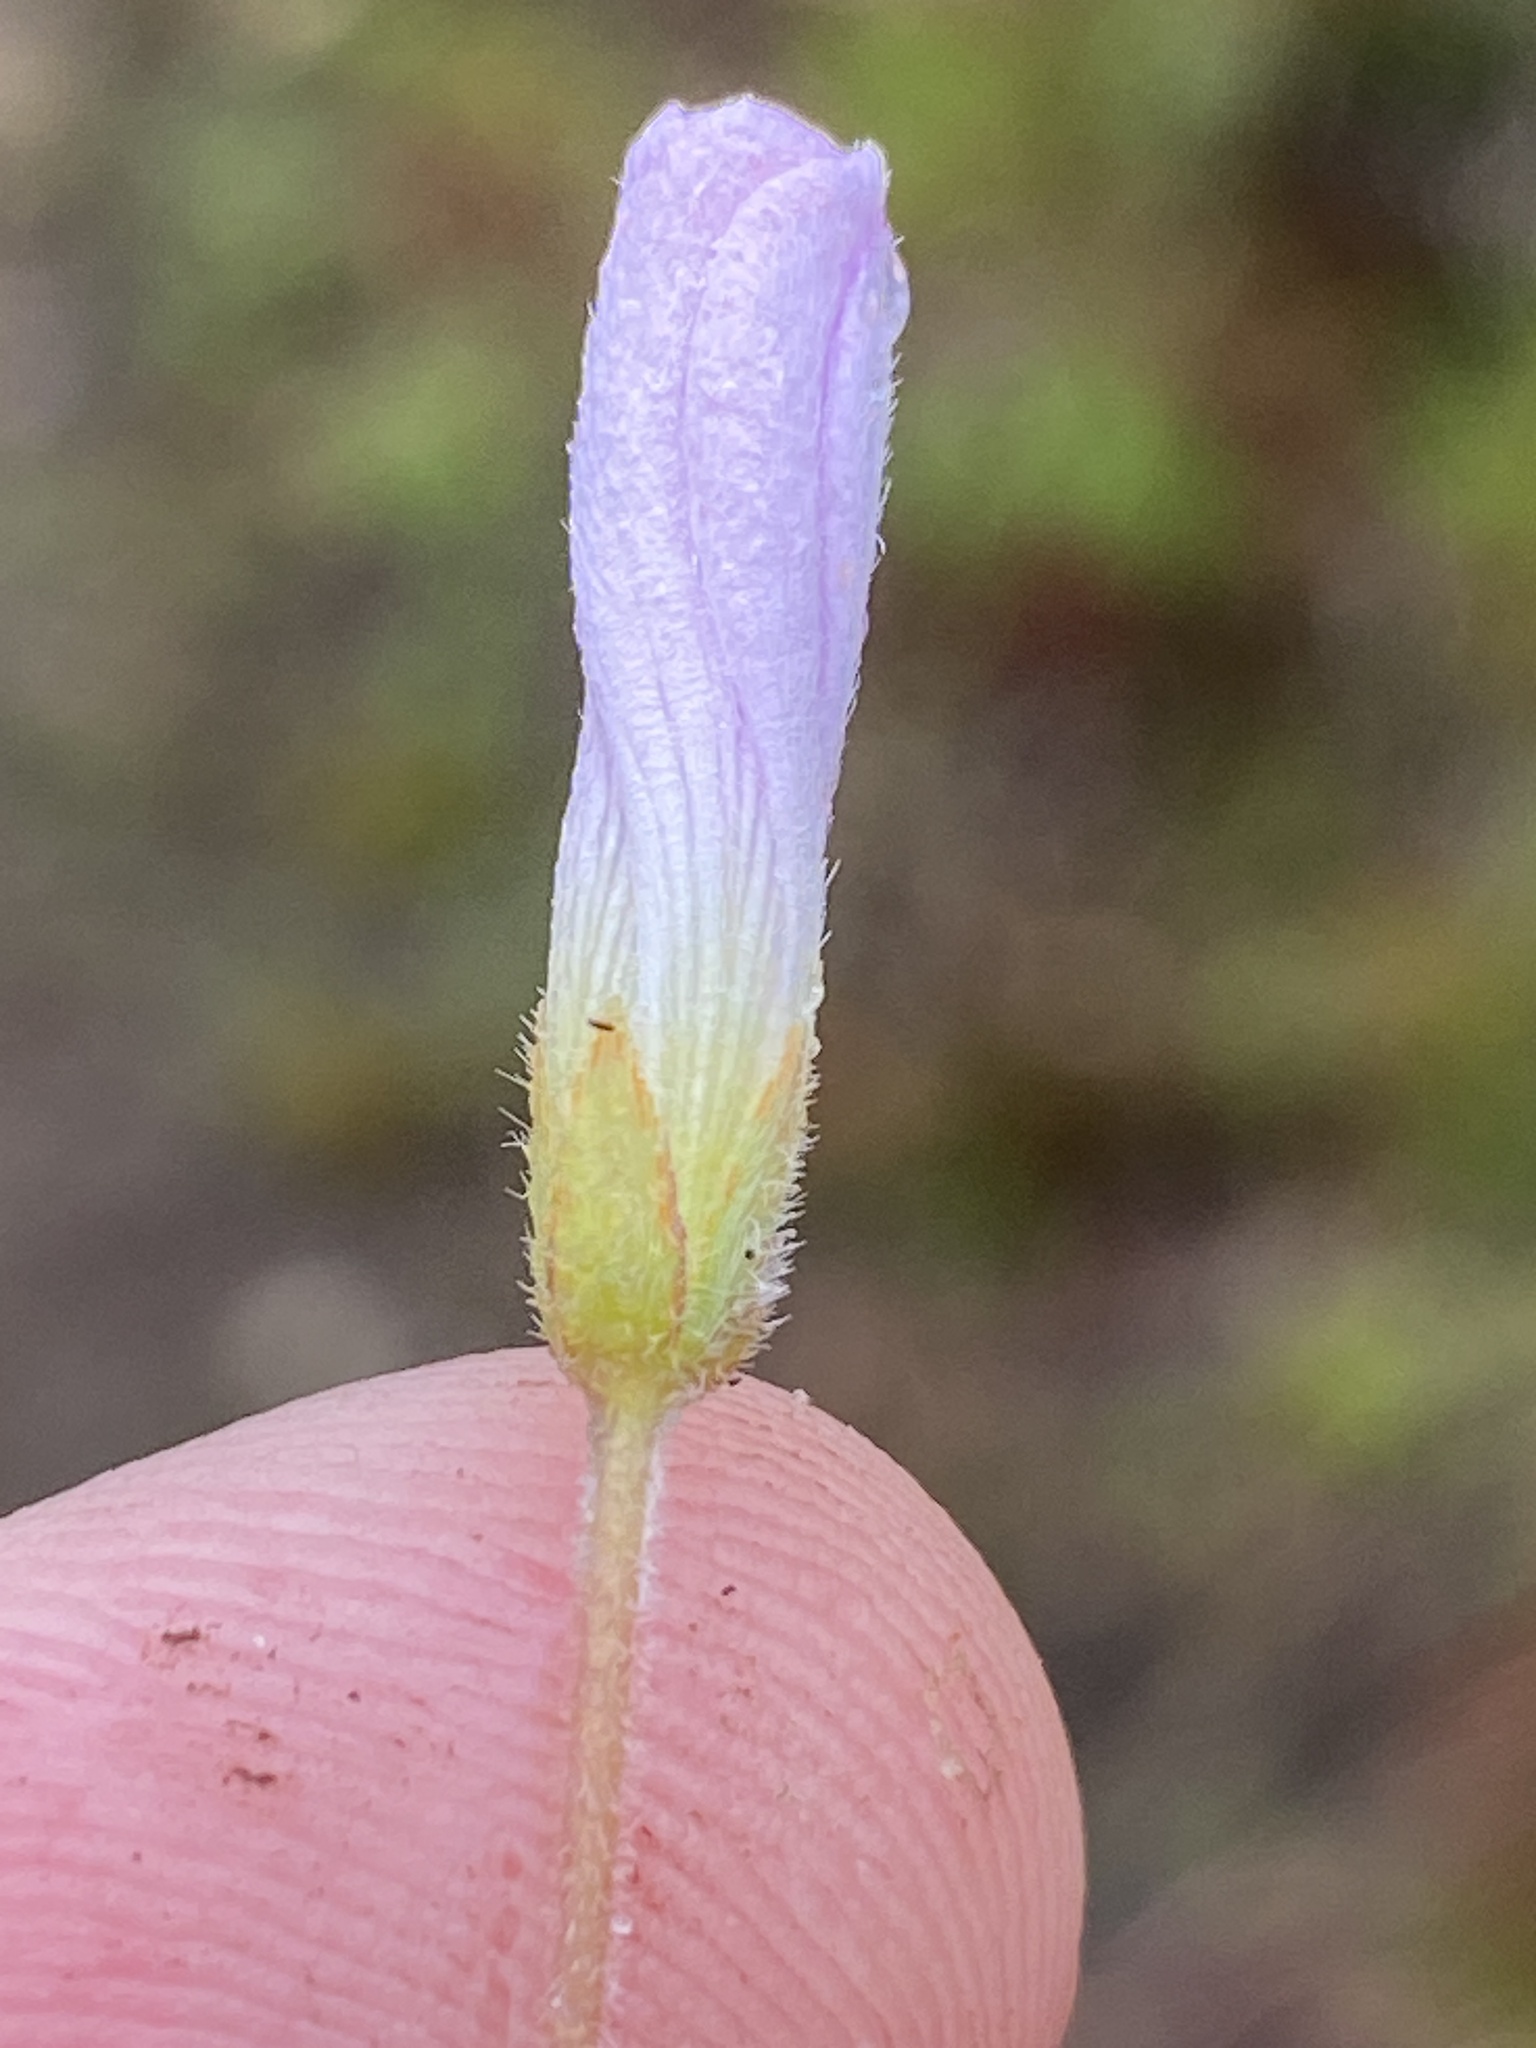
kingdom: Plantae
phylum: Tracheophyta
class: Magnoliopsida
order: Oxalidales
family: Oxalidaceae
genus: Oxalis
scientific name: Oxalis truncatula
